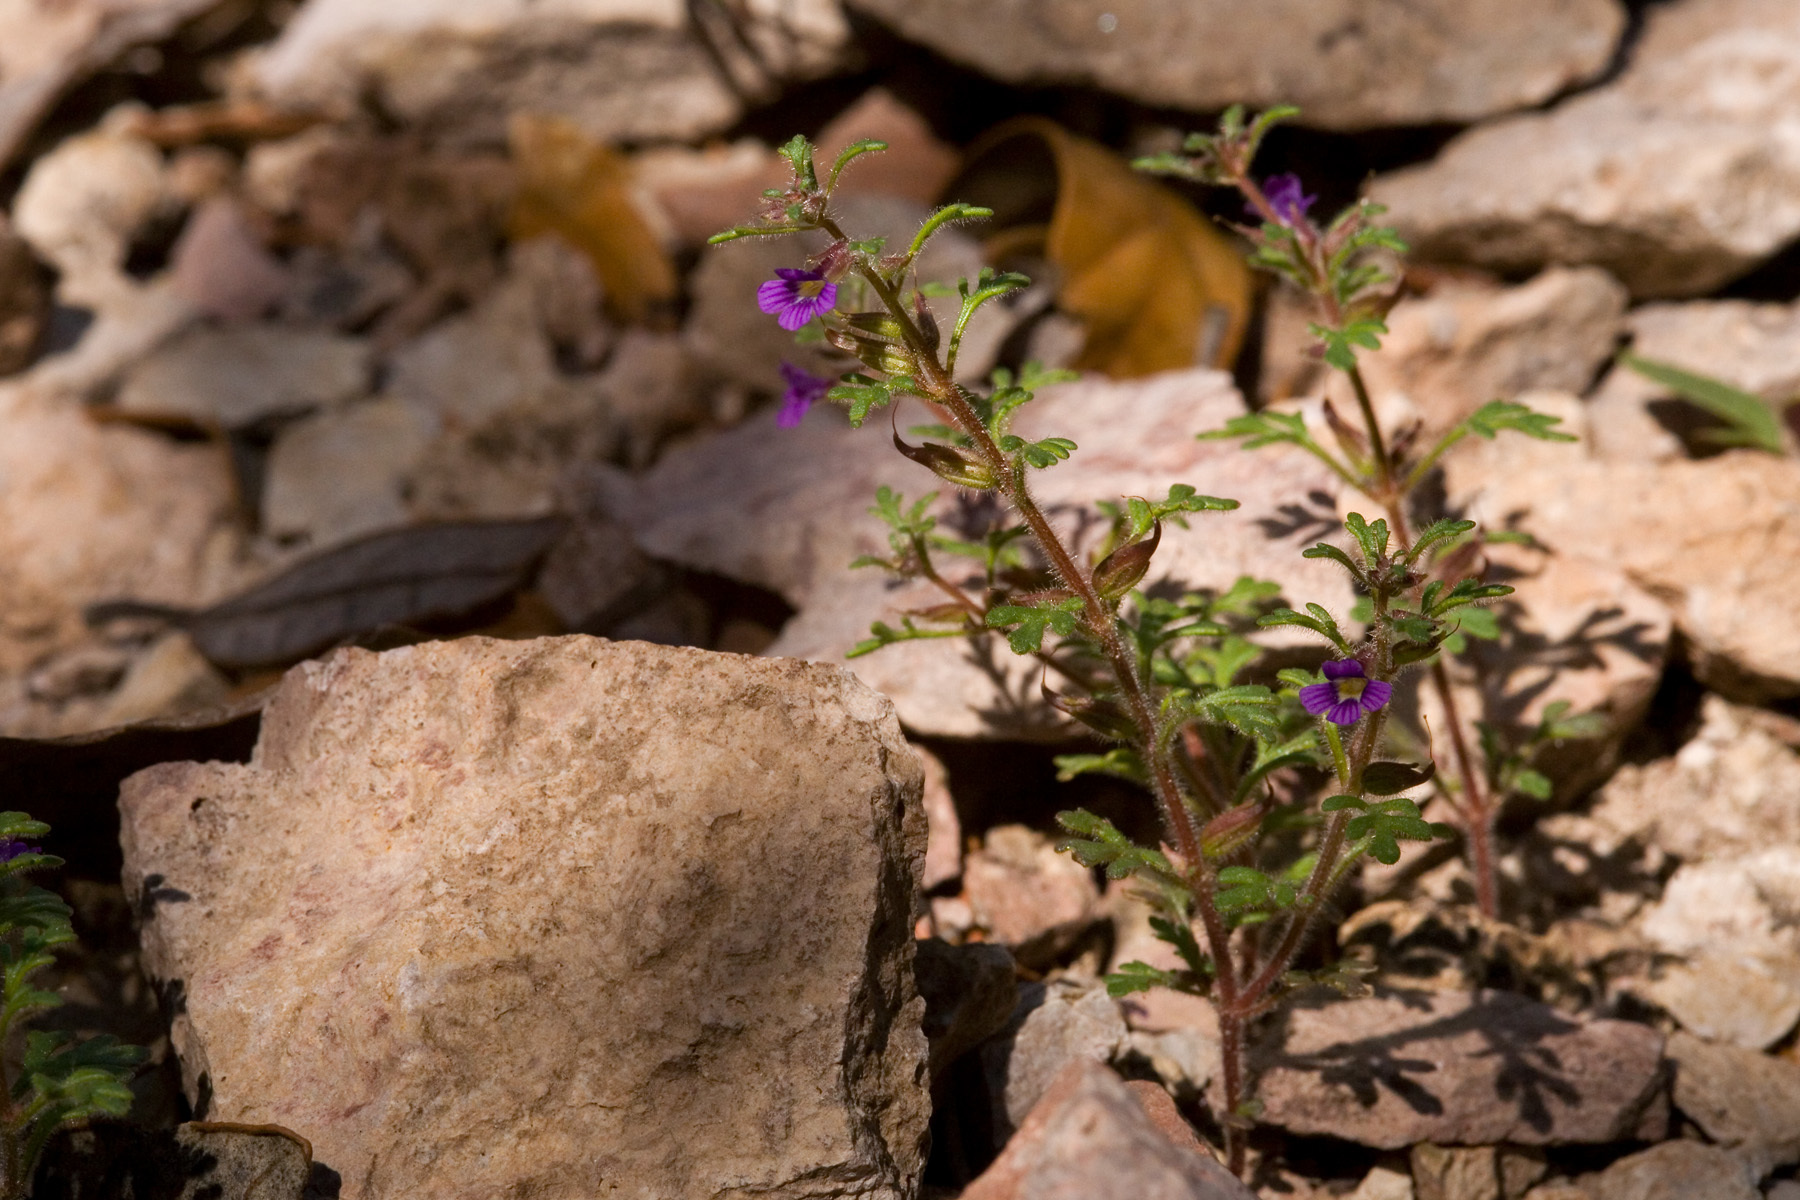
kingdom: Plantae
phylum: Tracheophyta
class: Magnoliopsida
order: Lamiales
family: Plantaginaceae
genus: Schistophragma
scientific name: Schistophragma intermedium
